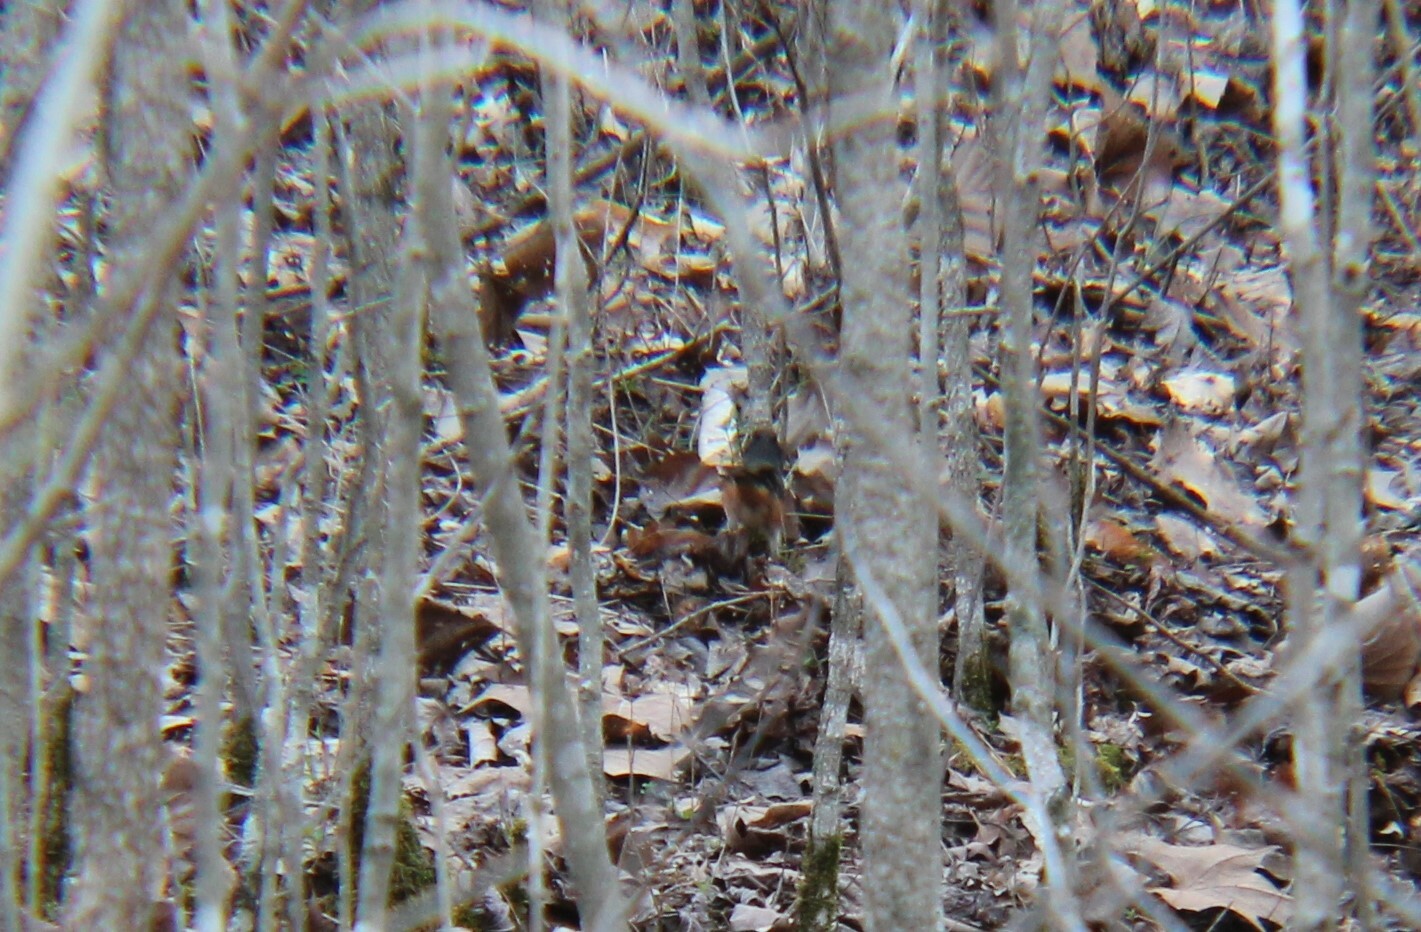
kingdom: Animalia
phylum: Chordata
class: Aves
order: Passeriformes
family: Passerellidae
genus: Pipilo
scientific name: Pipilo erythrophthalmus
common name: Eastern towhee
